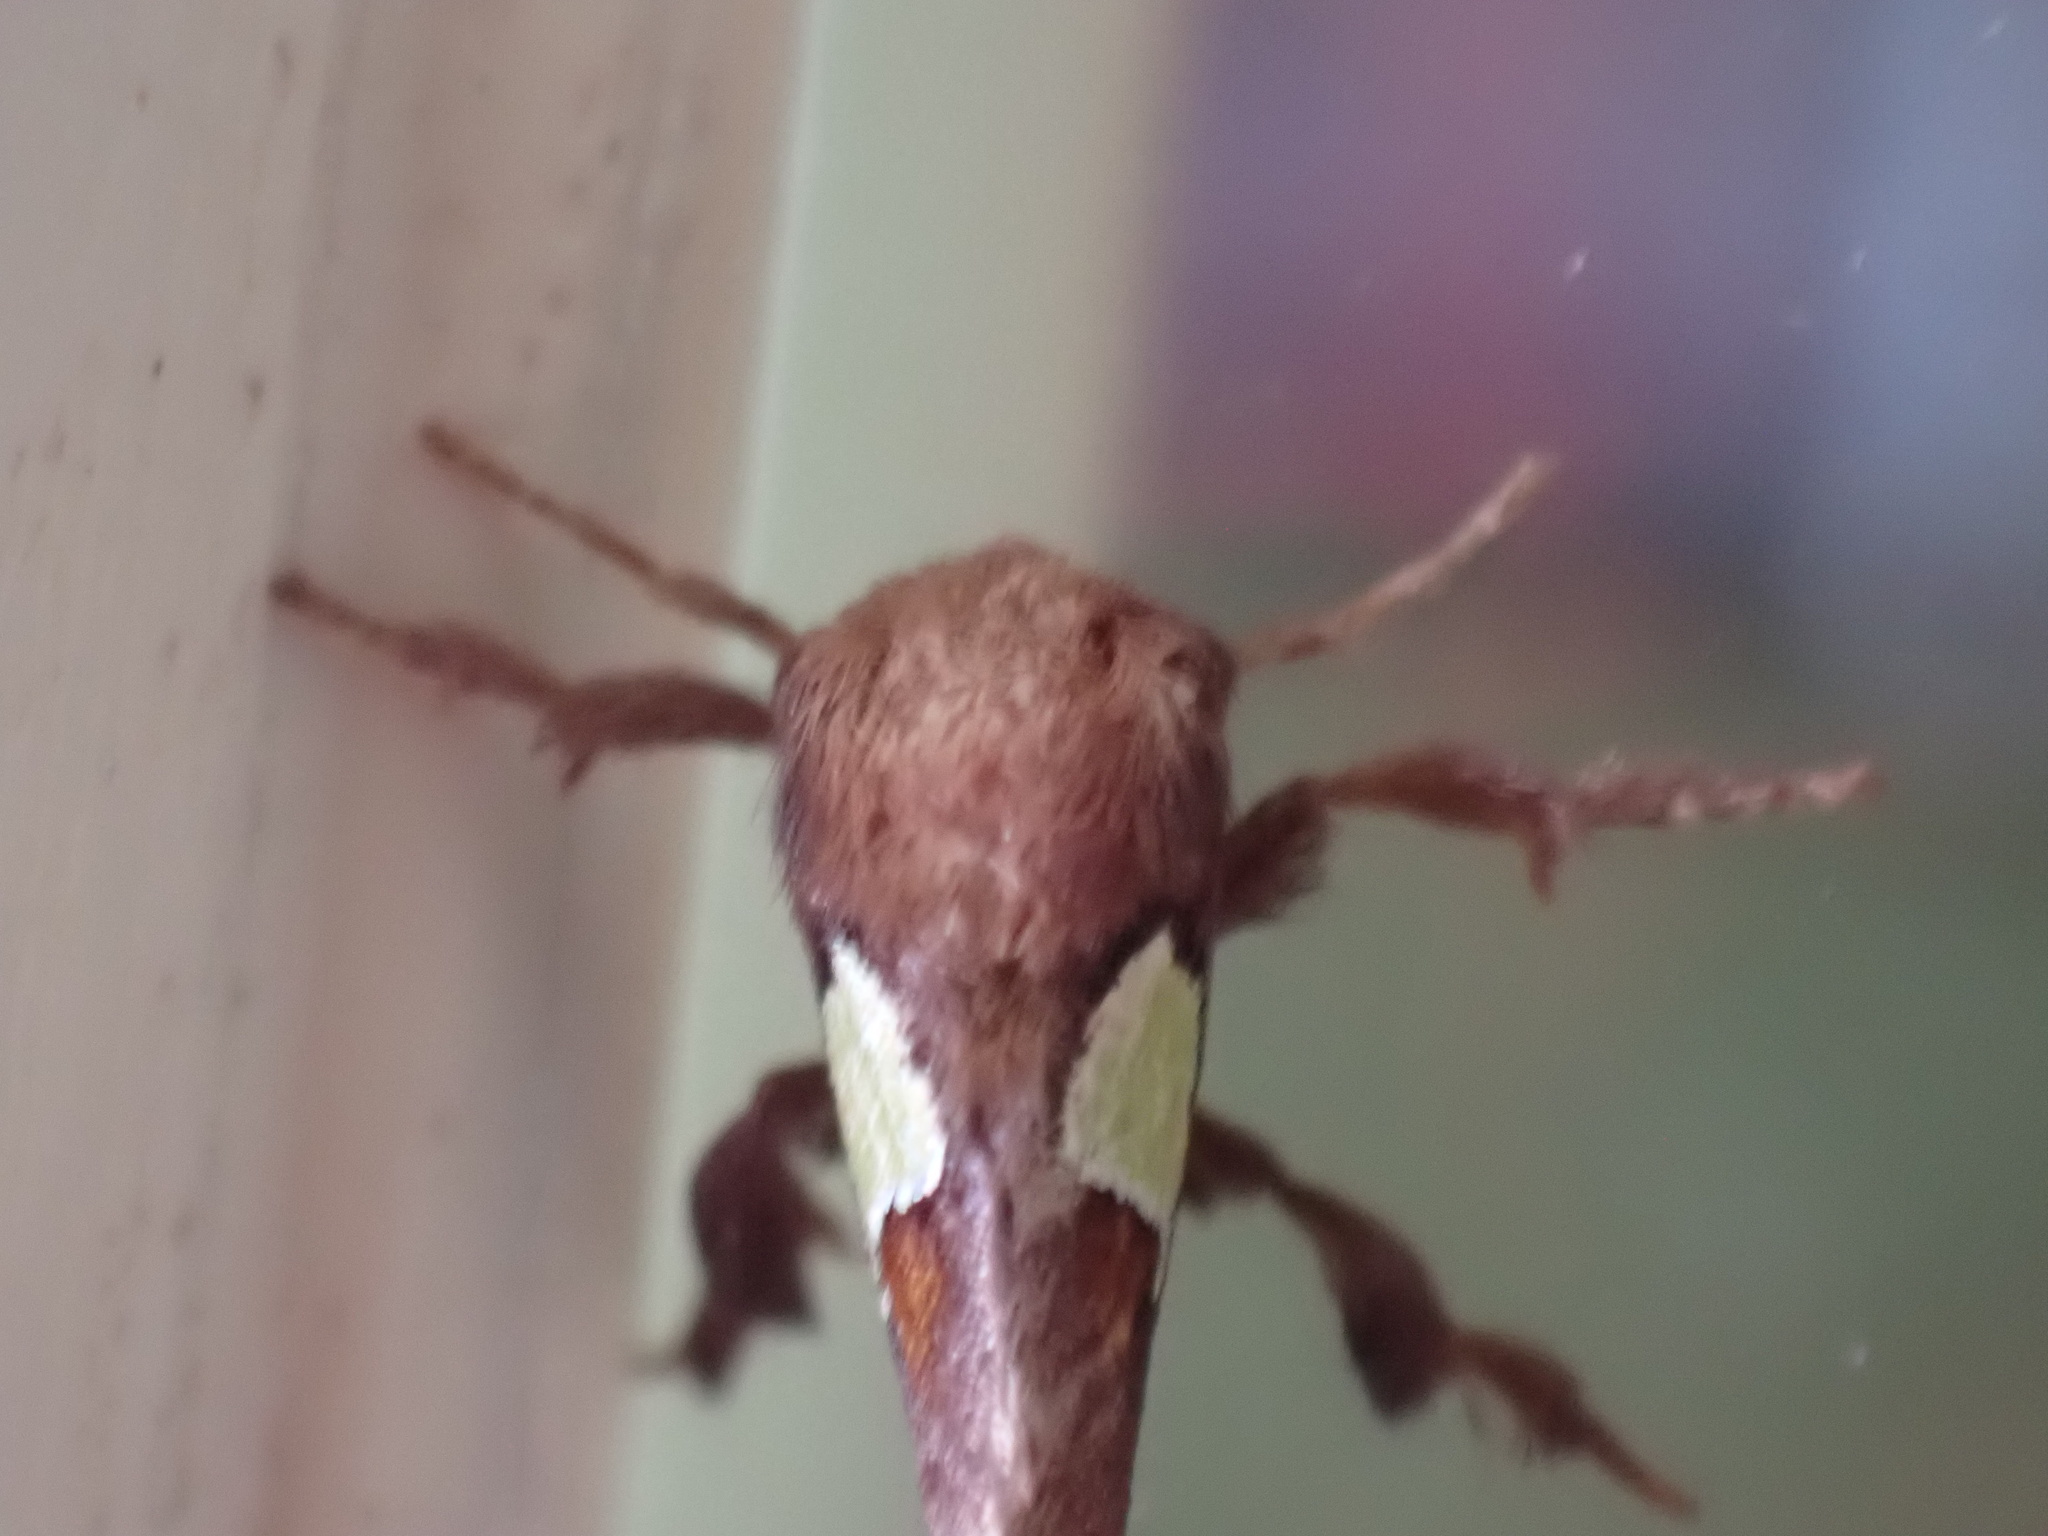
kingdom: Animalia
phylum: Arthropoda
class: Insecta
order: Lepidoptera
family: Limacodidae
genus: Euclea
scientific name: Euclea nanina
